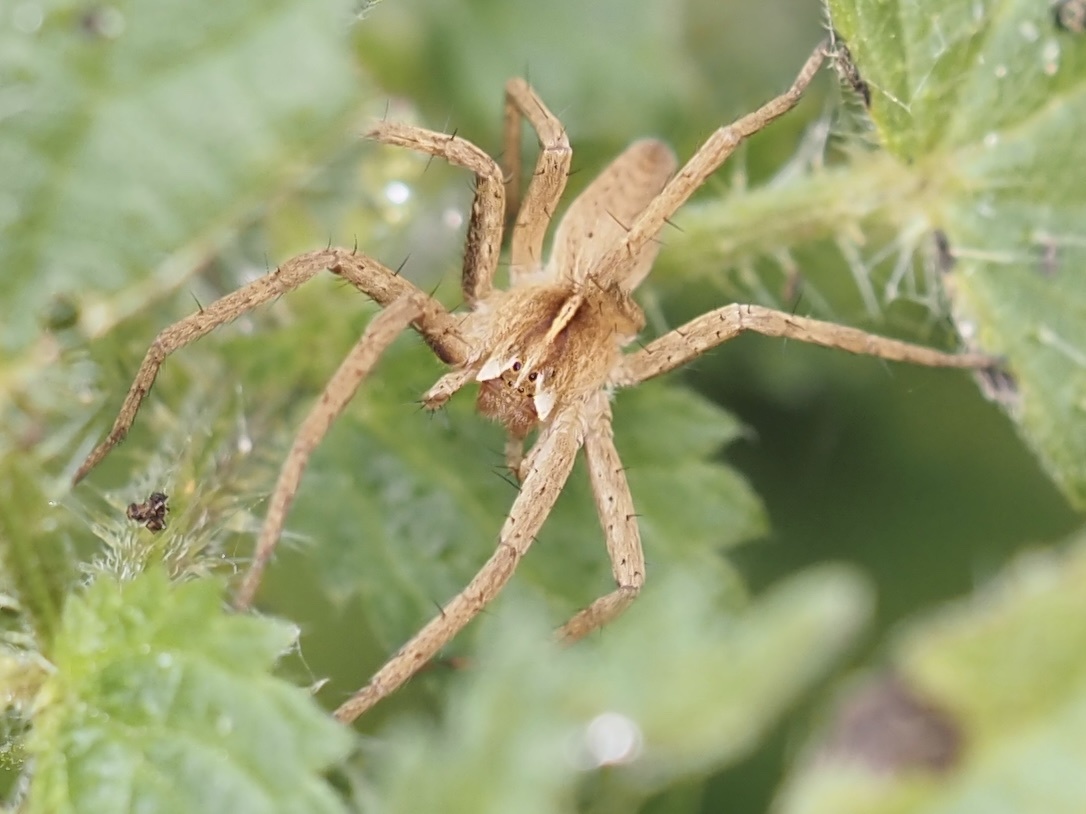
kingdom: Animalia
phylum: Arthropoda
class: Arachnida
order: Araneae
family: Pisauridae
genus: Pisaura
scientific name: Pisaura mirabilis
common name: Tent spider
